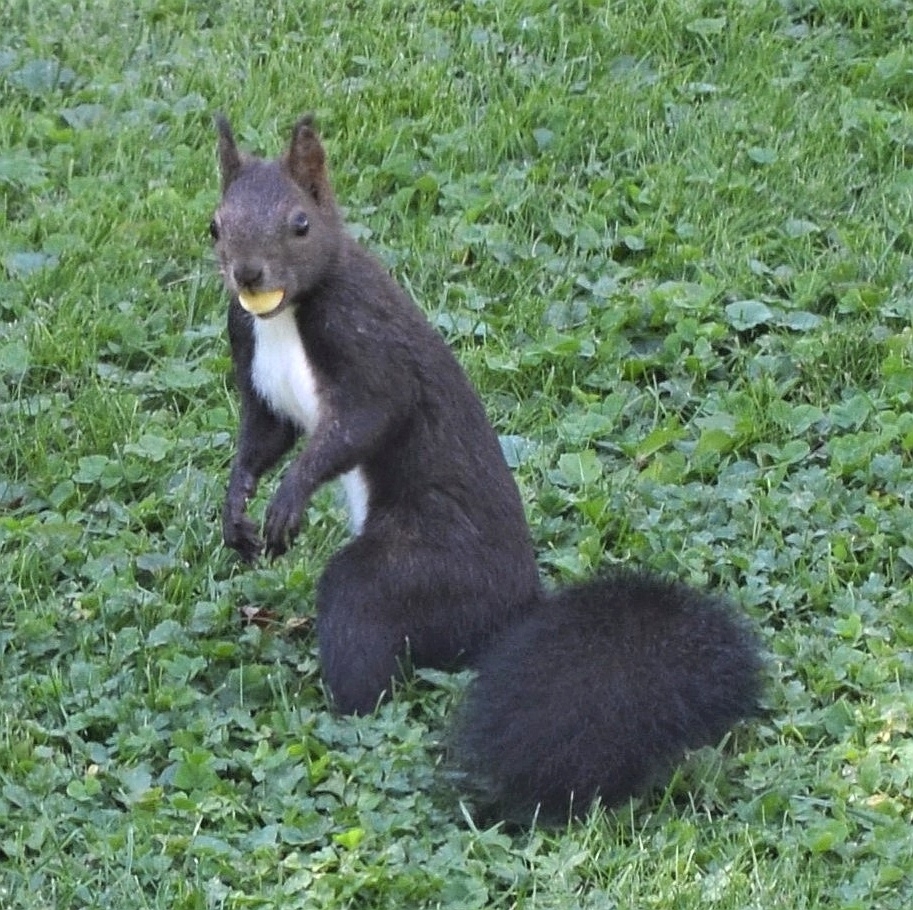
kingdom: Animalia
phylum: Chordata
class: Mammalia
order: Rodentia
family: Sciuridae
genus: Sciurus
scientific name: Sciurus vulgaris
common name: Eurasian red squirrel
